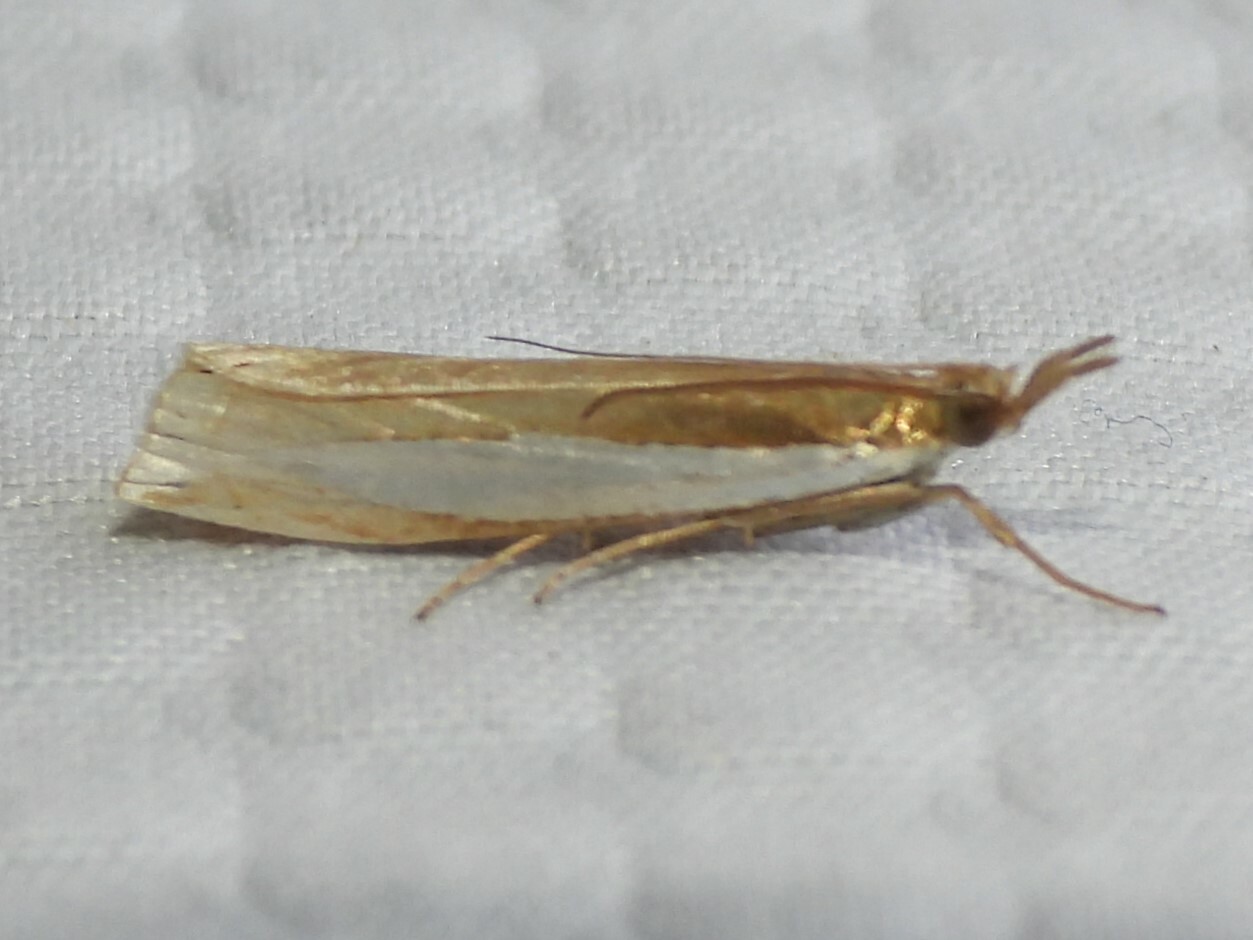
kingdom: Animalia
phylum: Arthropoda
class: Insecta
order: Lepidoptera
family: Crambidae
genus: Crambus
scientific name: Crambus leachellus
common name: Leach's grass-veneer
